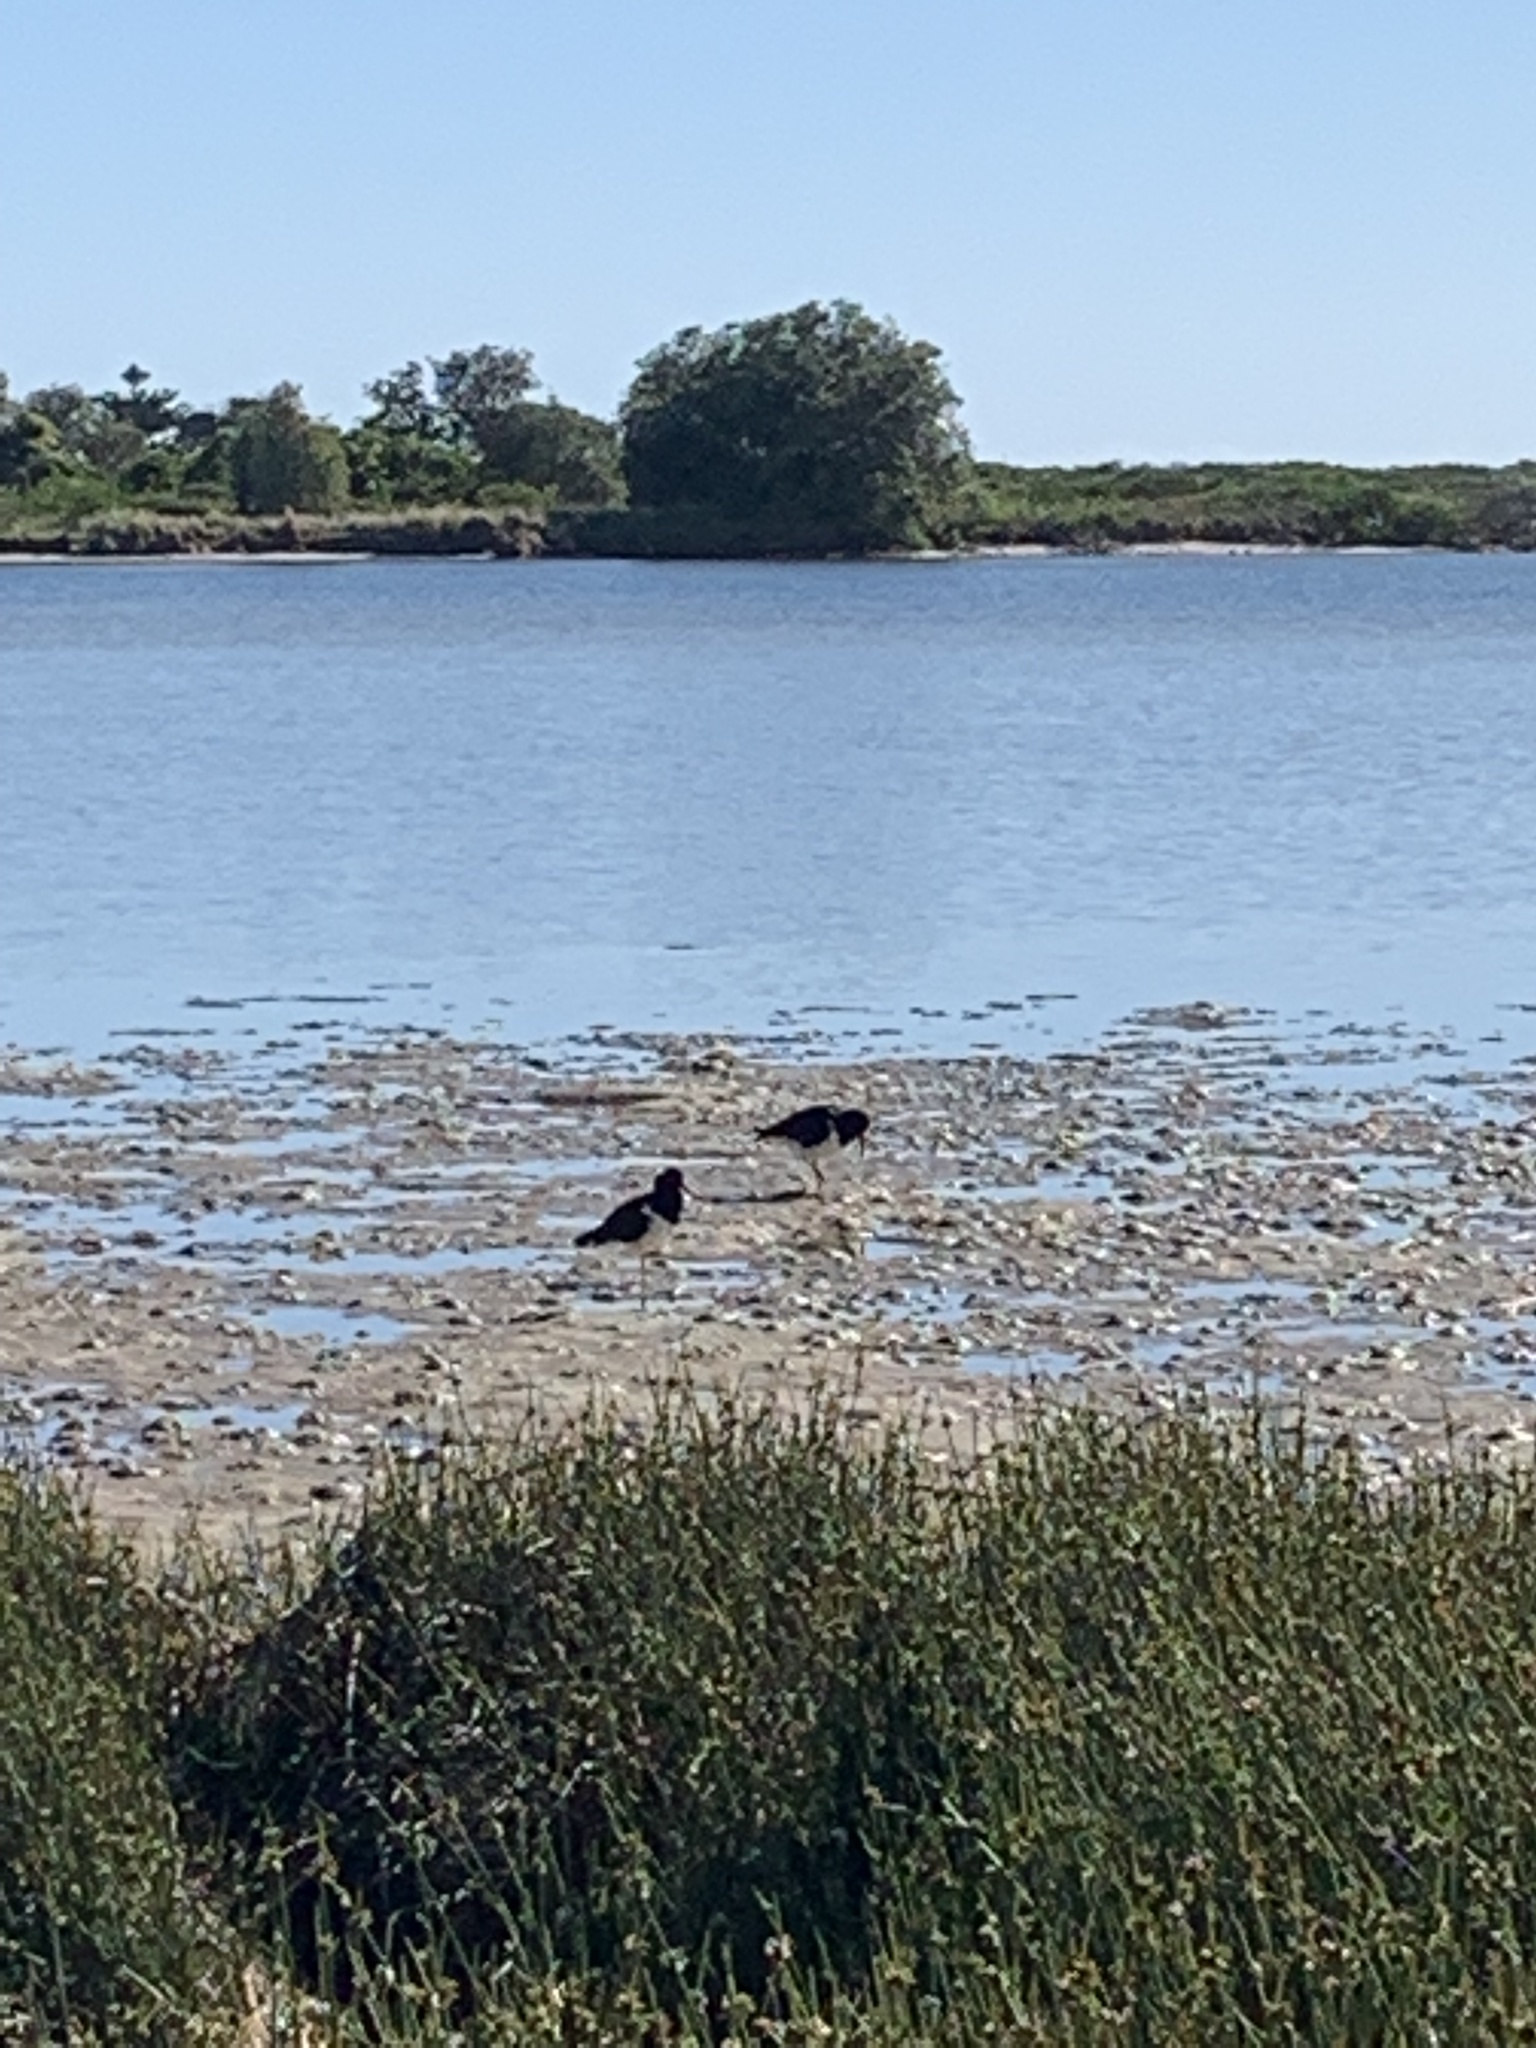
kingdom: Animalia
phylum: Chordata
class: Aves
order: Charadriiformes
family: Haematopodidae
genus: Haematopus
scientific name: Haematopus longirostris
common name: Pied oystercatcher
